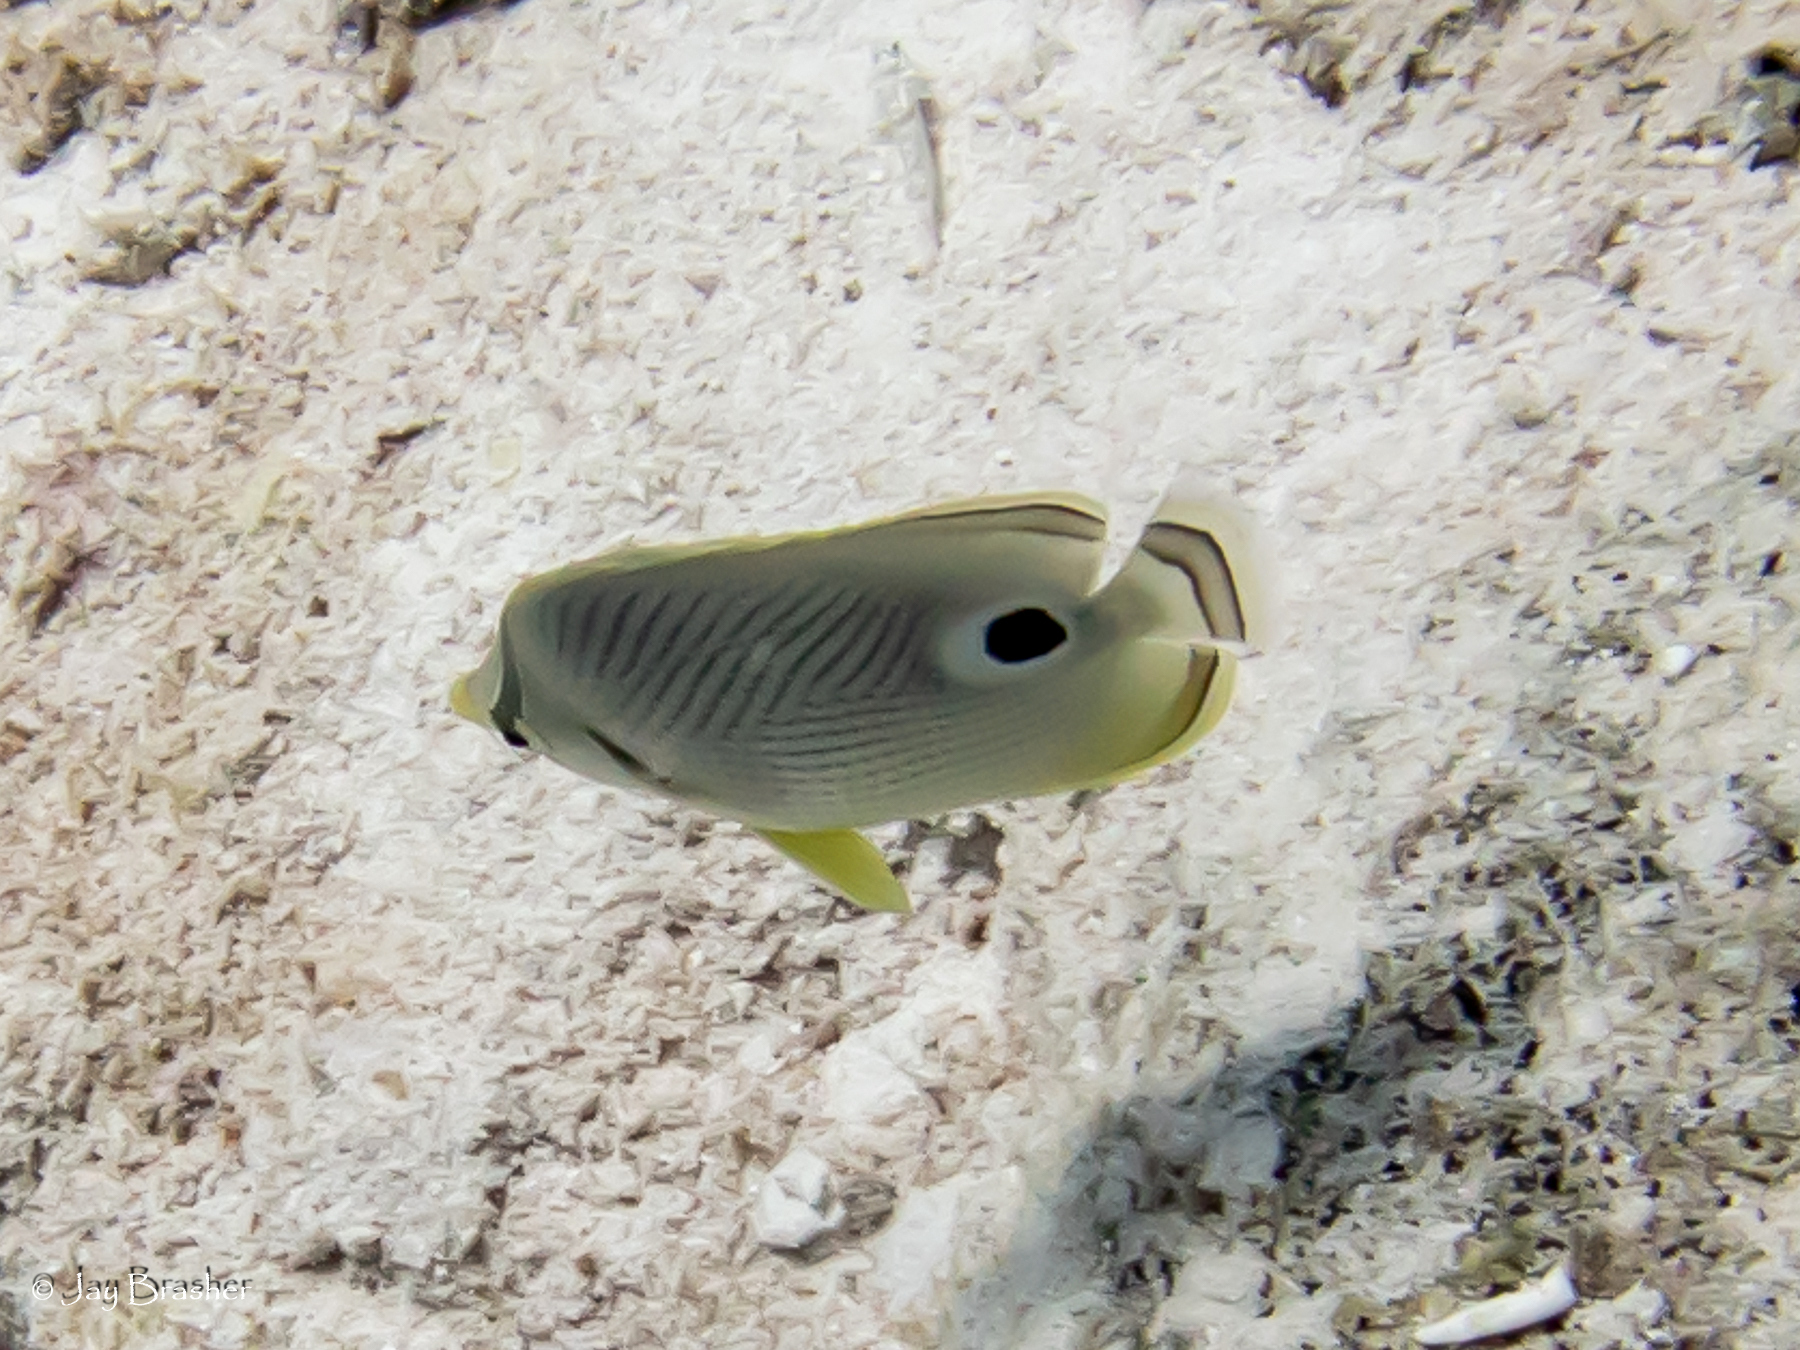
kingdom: Animalia
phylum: Chordata
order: Perciformes
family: Chaetodontidae
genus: Chaetodon
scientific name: Chaetodon capistratus
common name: Kete
